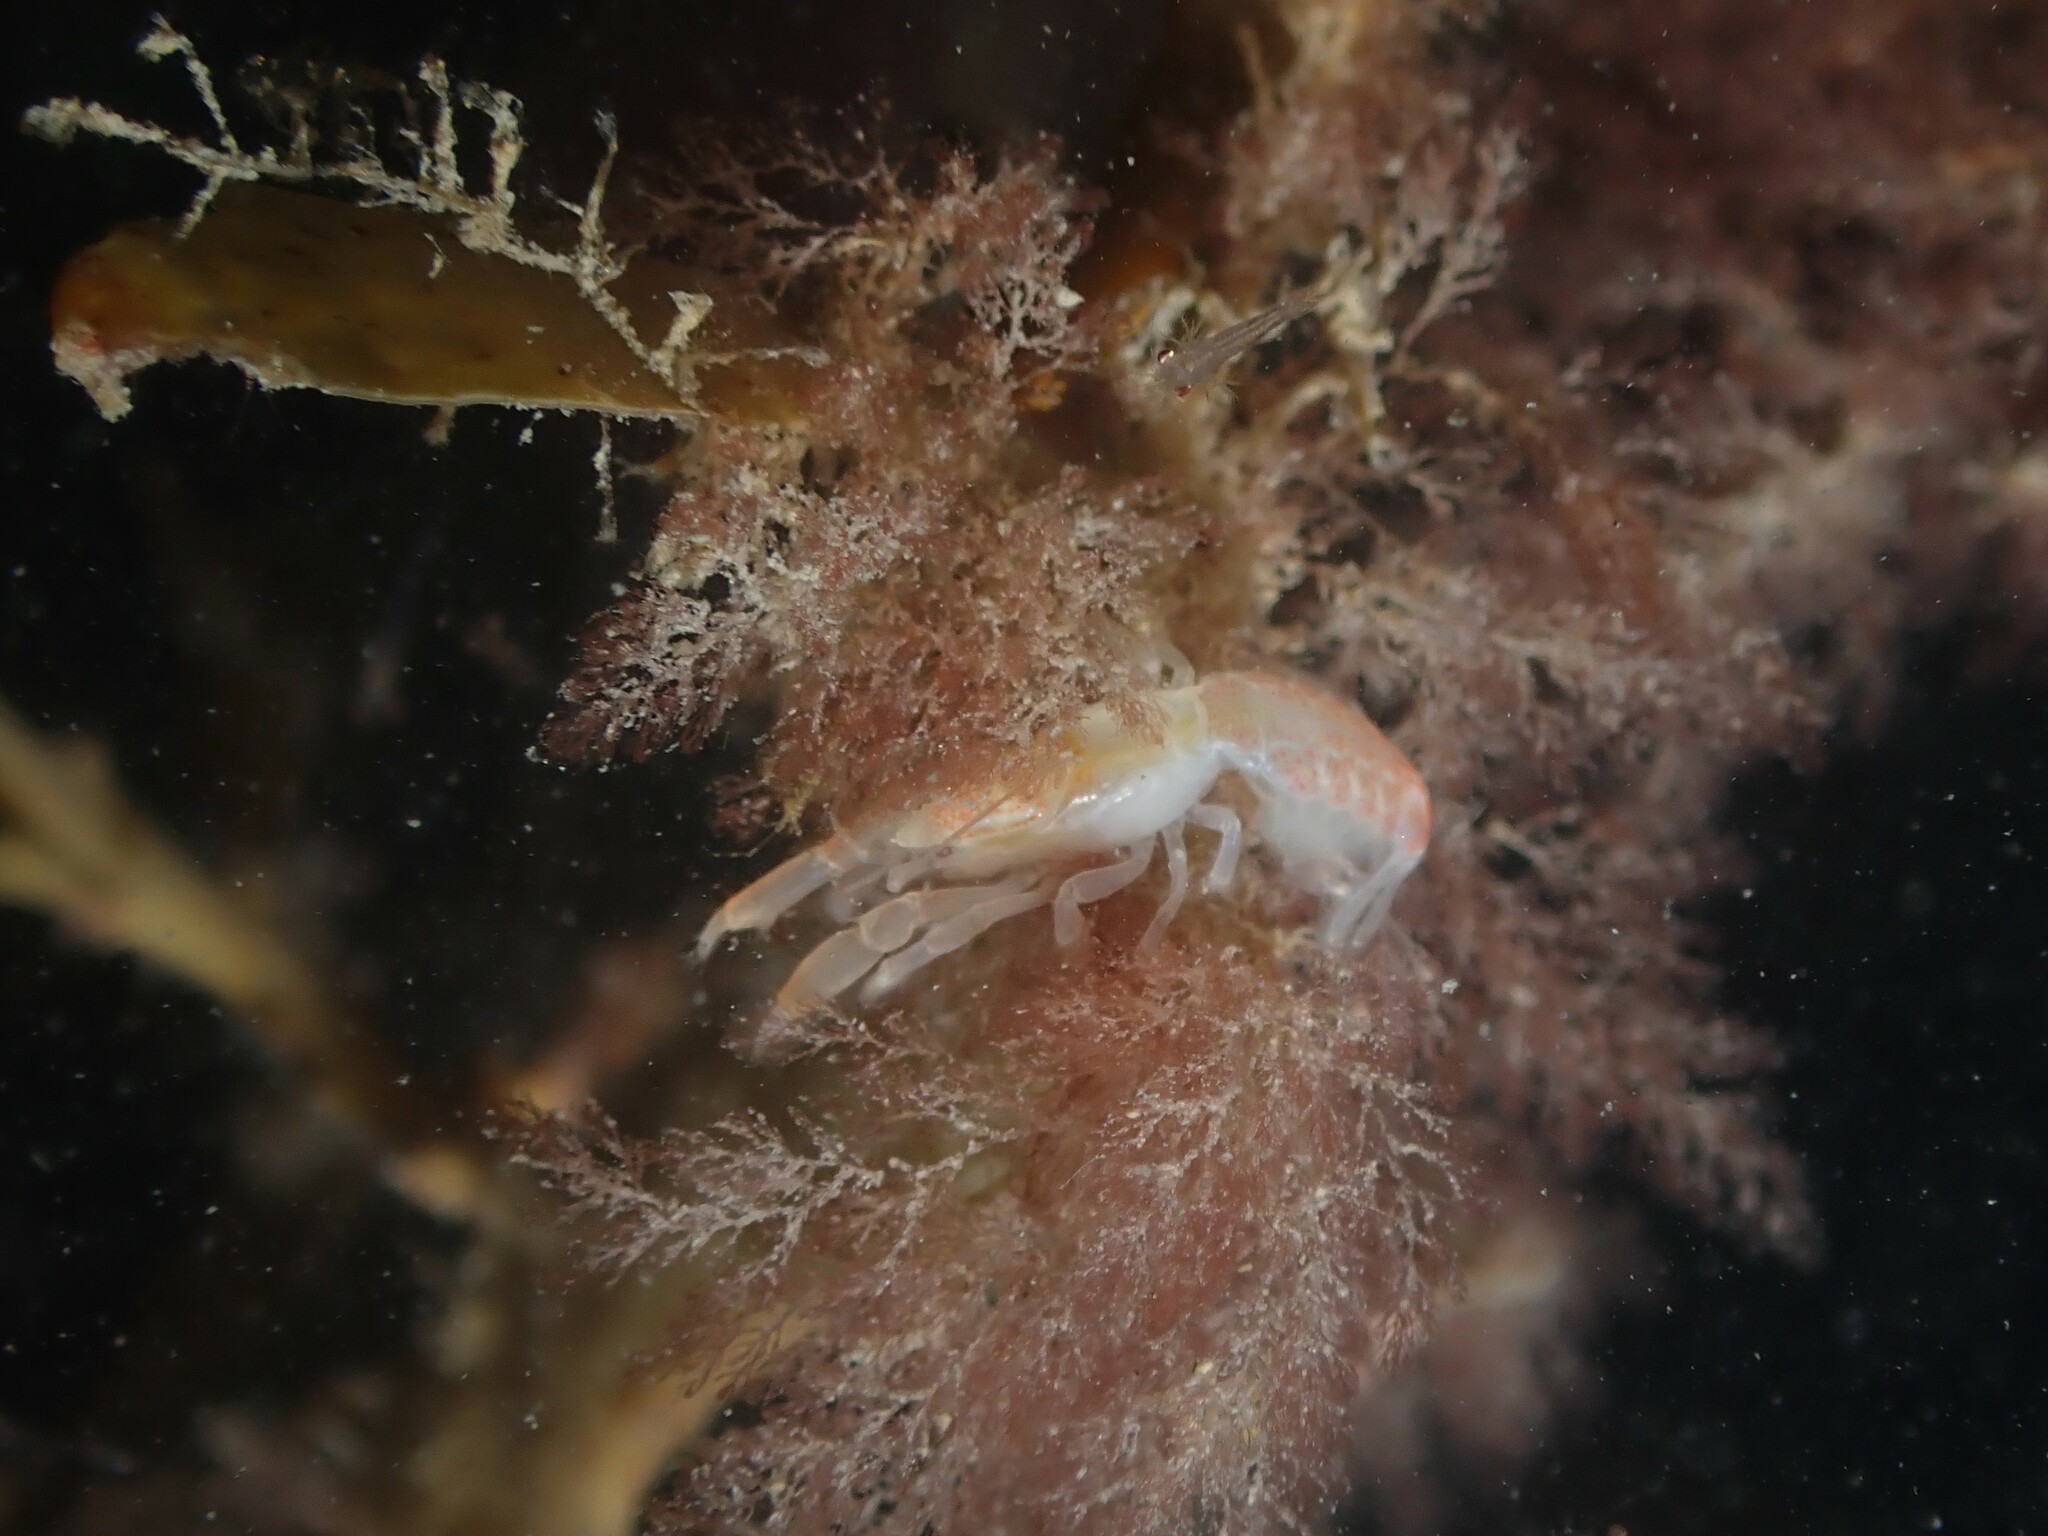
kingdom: Animalia
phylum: Arthropoda
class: Malacostraca
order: Decapoda
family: Upogebiidae
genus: Upogebia
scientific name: Upogebia hirtifrons
